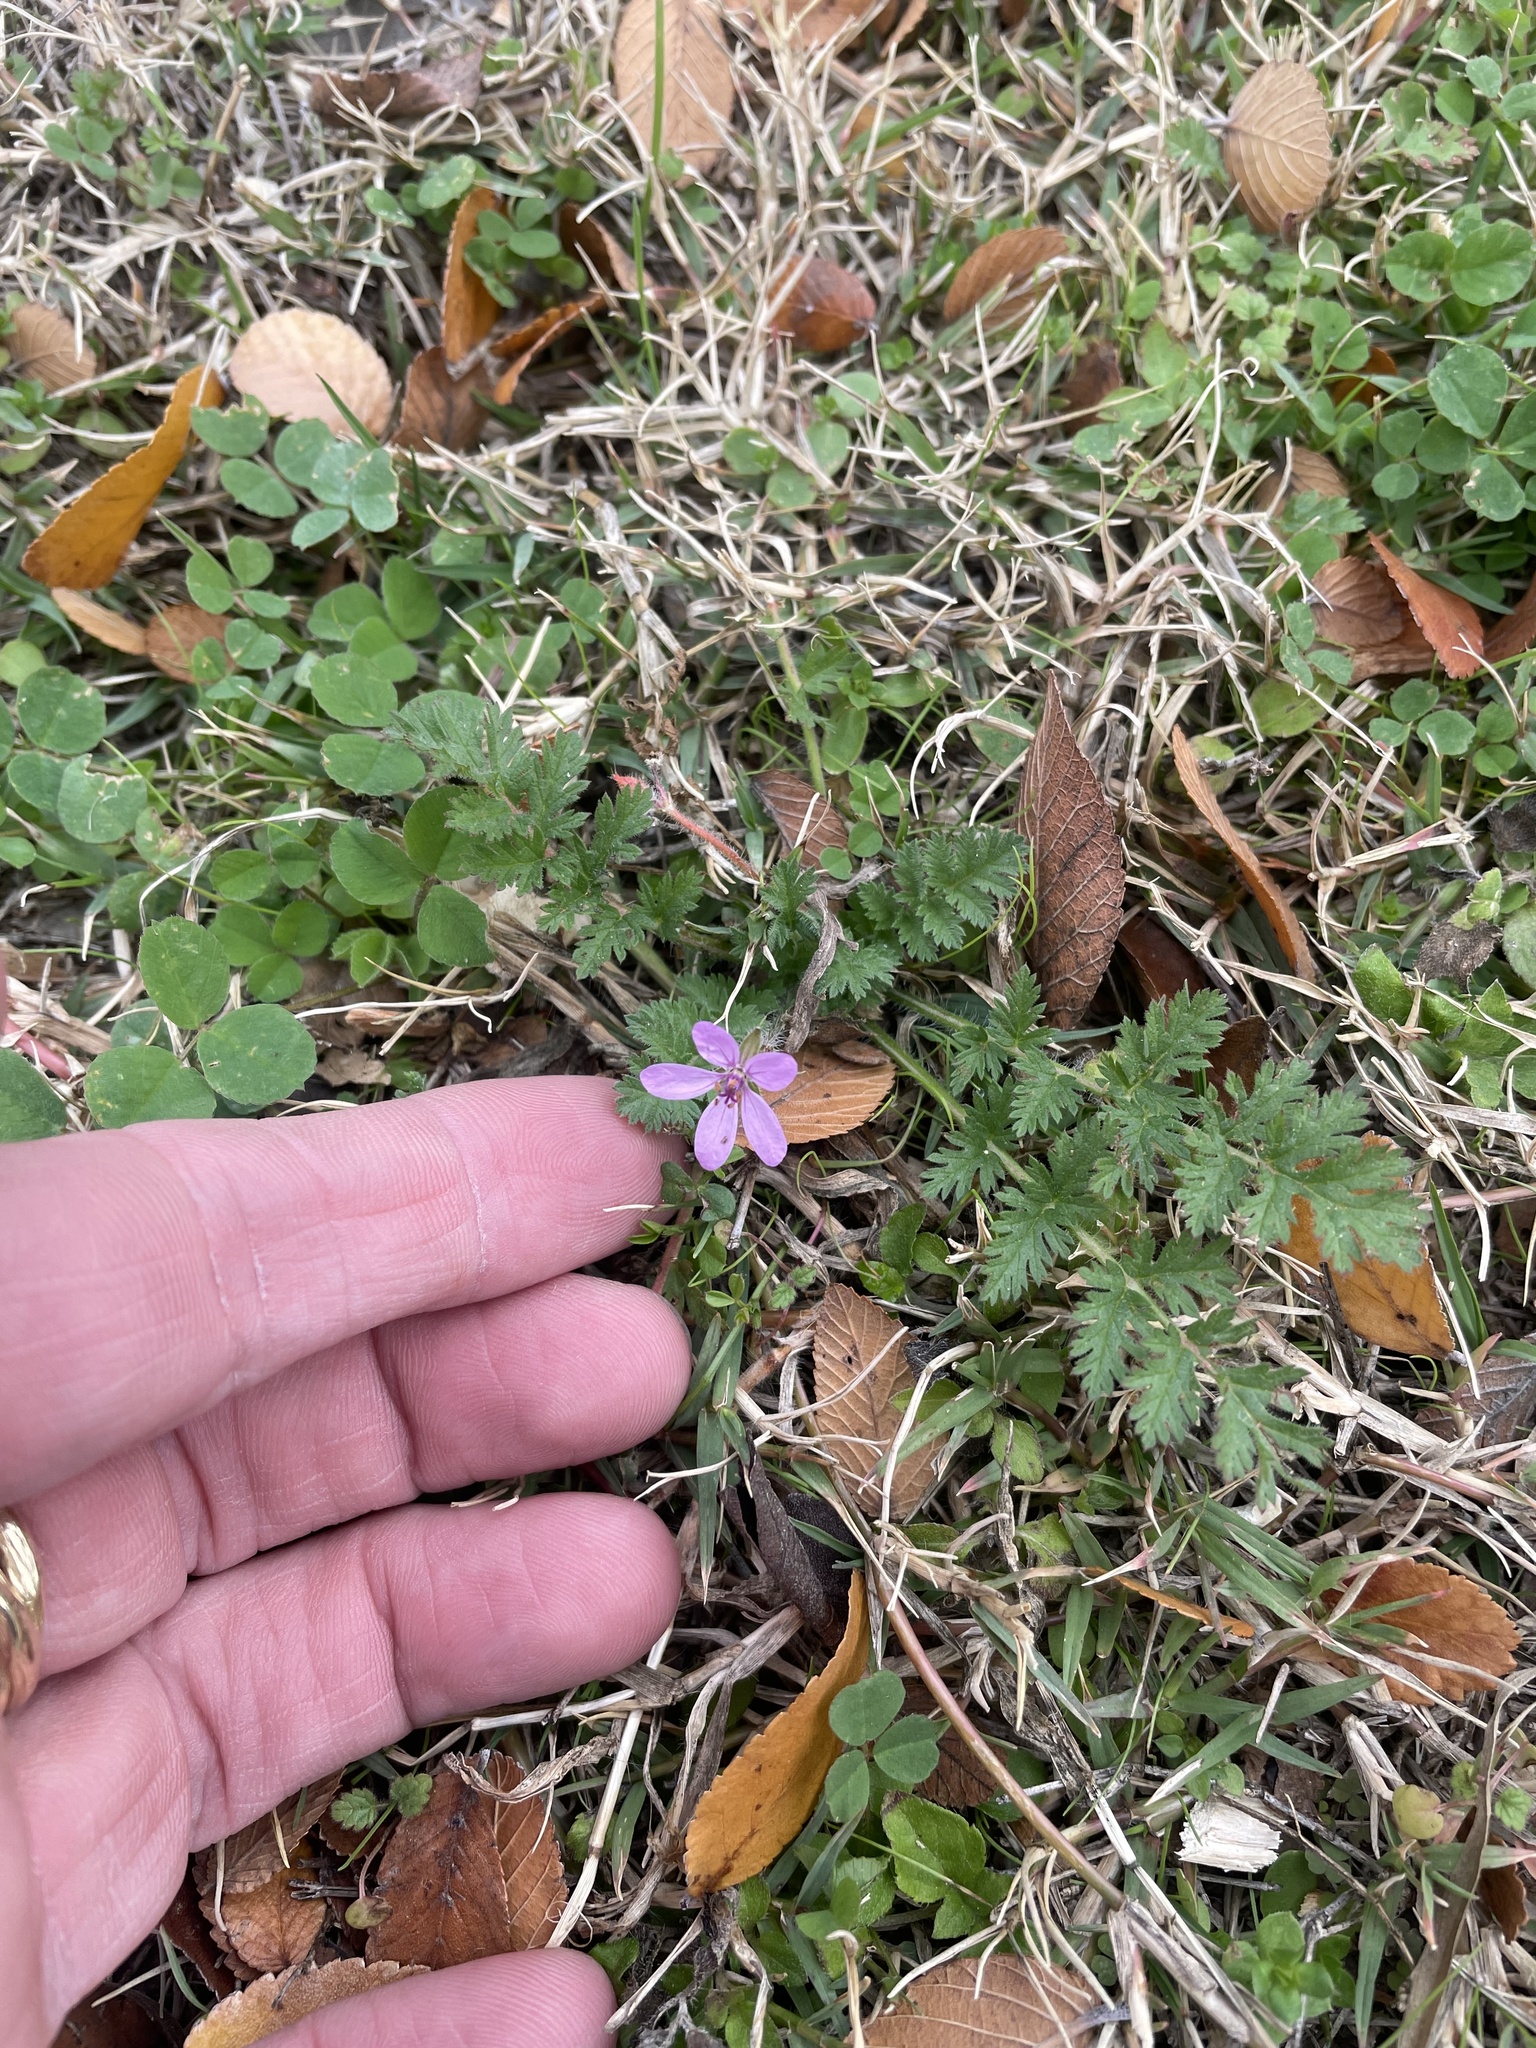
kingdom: Plantae
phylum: Tracheophyta
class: Magnoliopsida
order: Geraniales
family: Geraniaceae
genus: Erodium
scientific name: Erodium cicutarium
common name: Common stork's-bill
